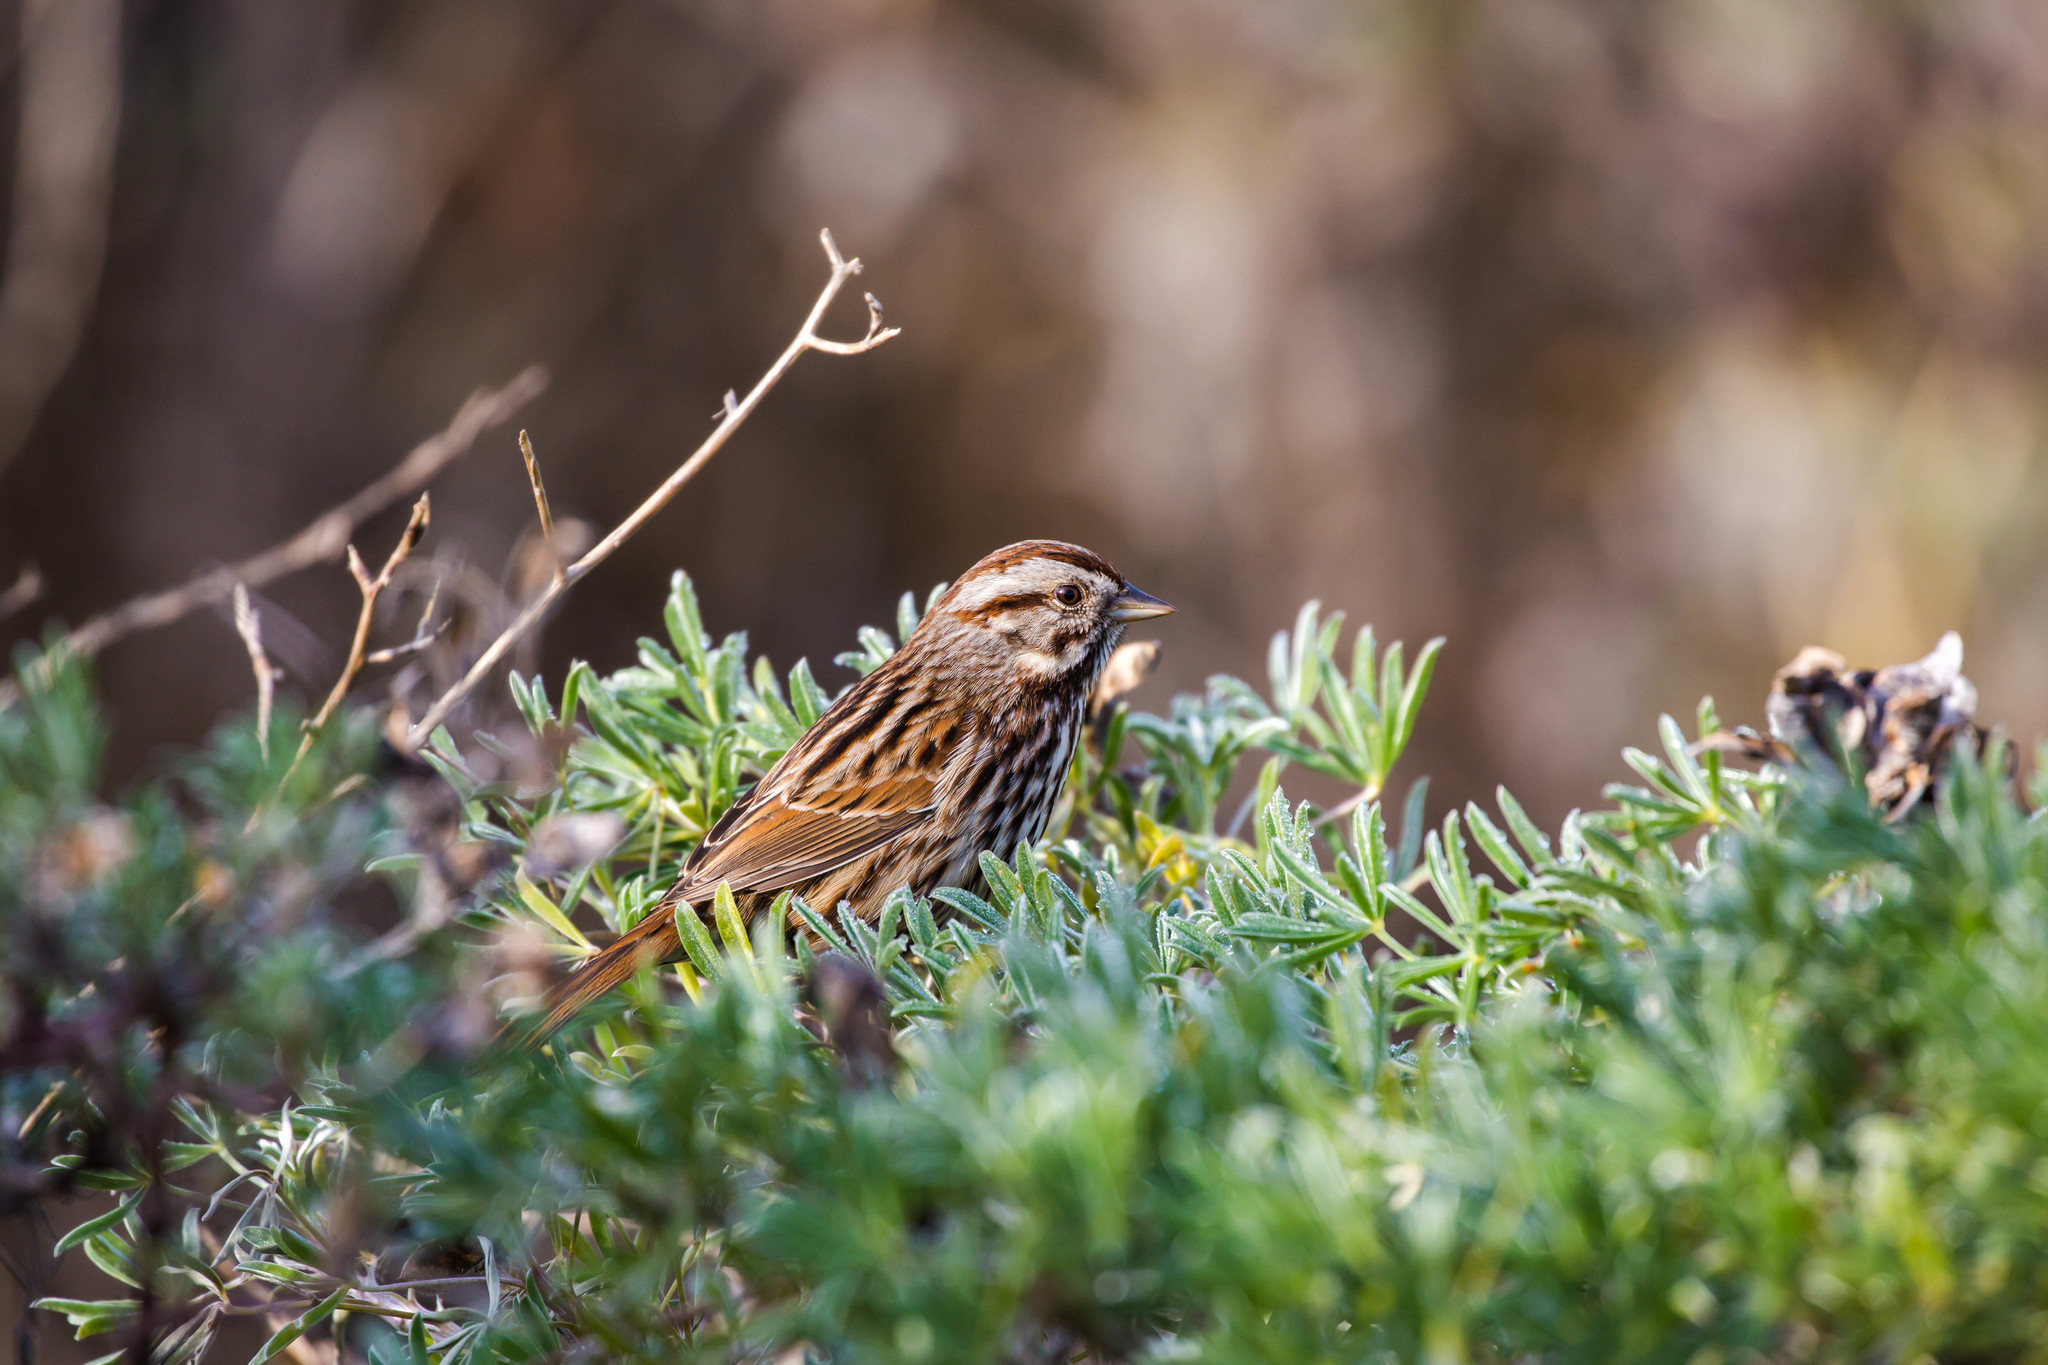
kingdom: Animalia
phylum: Chordata
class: Aves
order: Passeriformes
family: Passerellidae
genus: Melospiza
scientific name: Melospiza melodia
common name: Song sparrow
